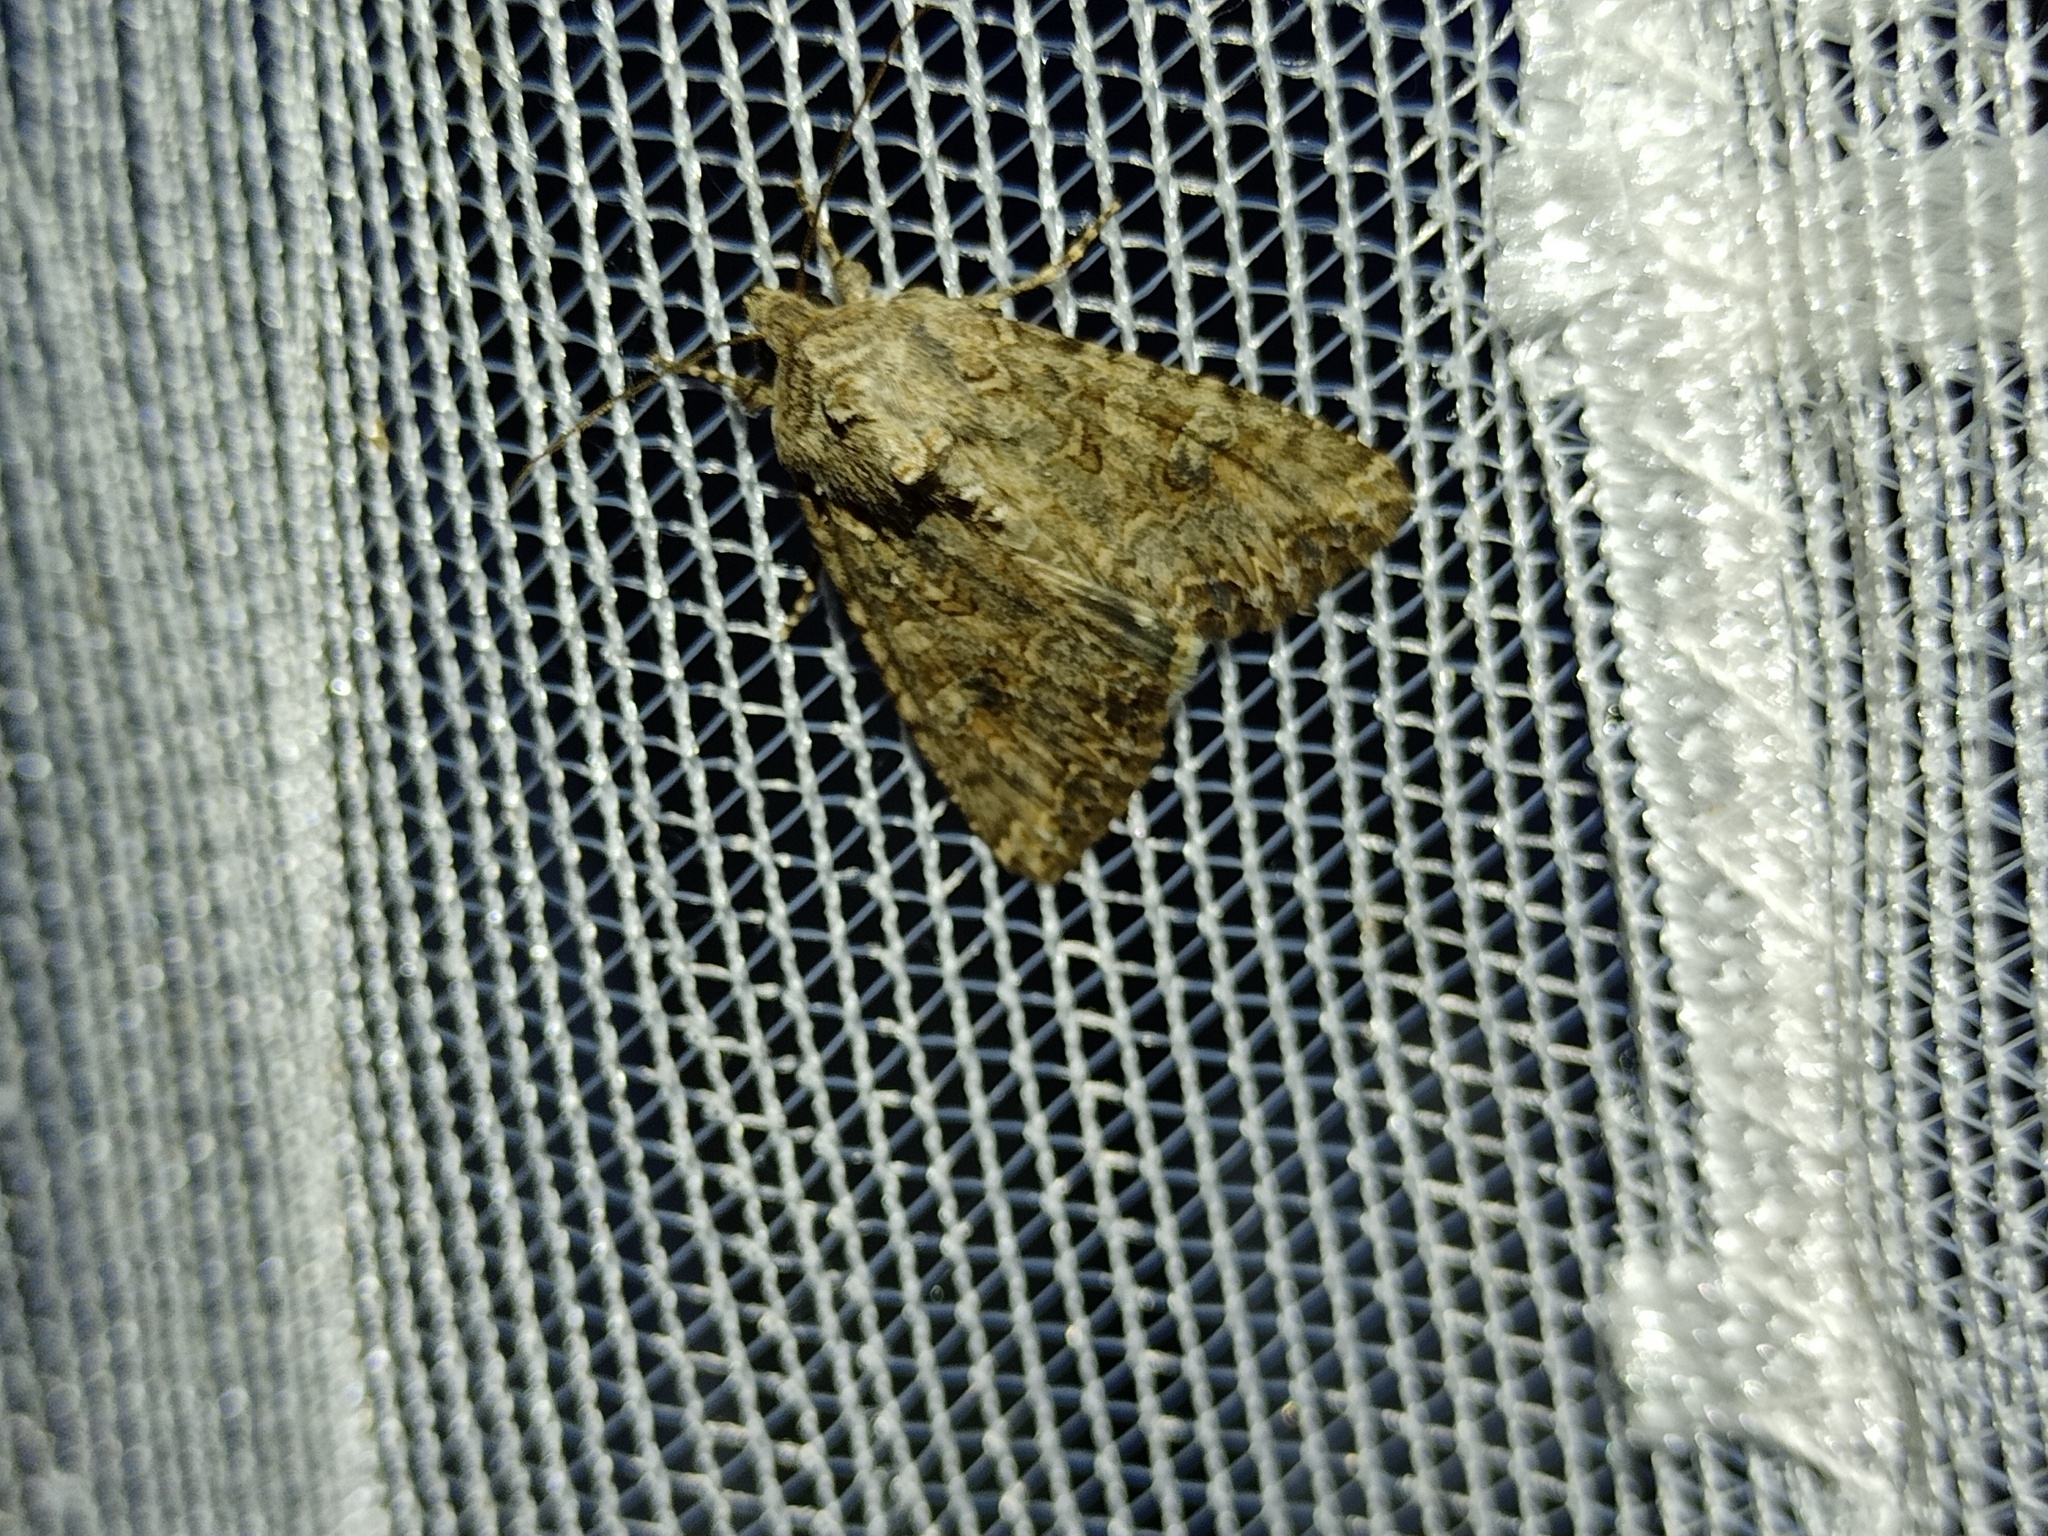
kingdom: Animalia
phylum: Arthropoda
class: Insecta
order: Lepidoptera
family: Noctuidae
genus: Anarta
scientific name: Anarta trifolii
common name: Clover cutworm moth
